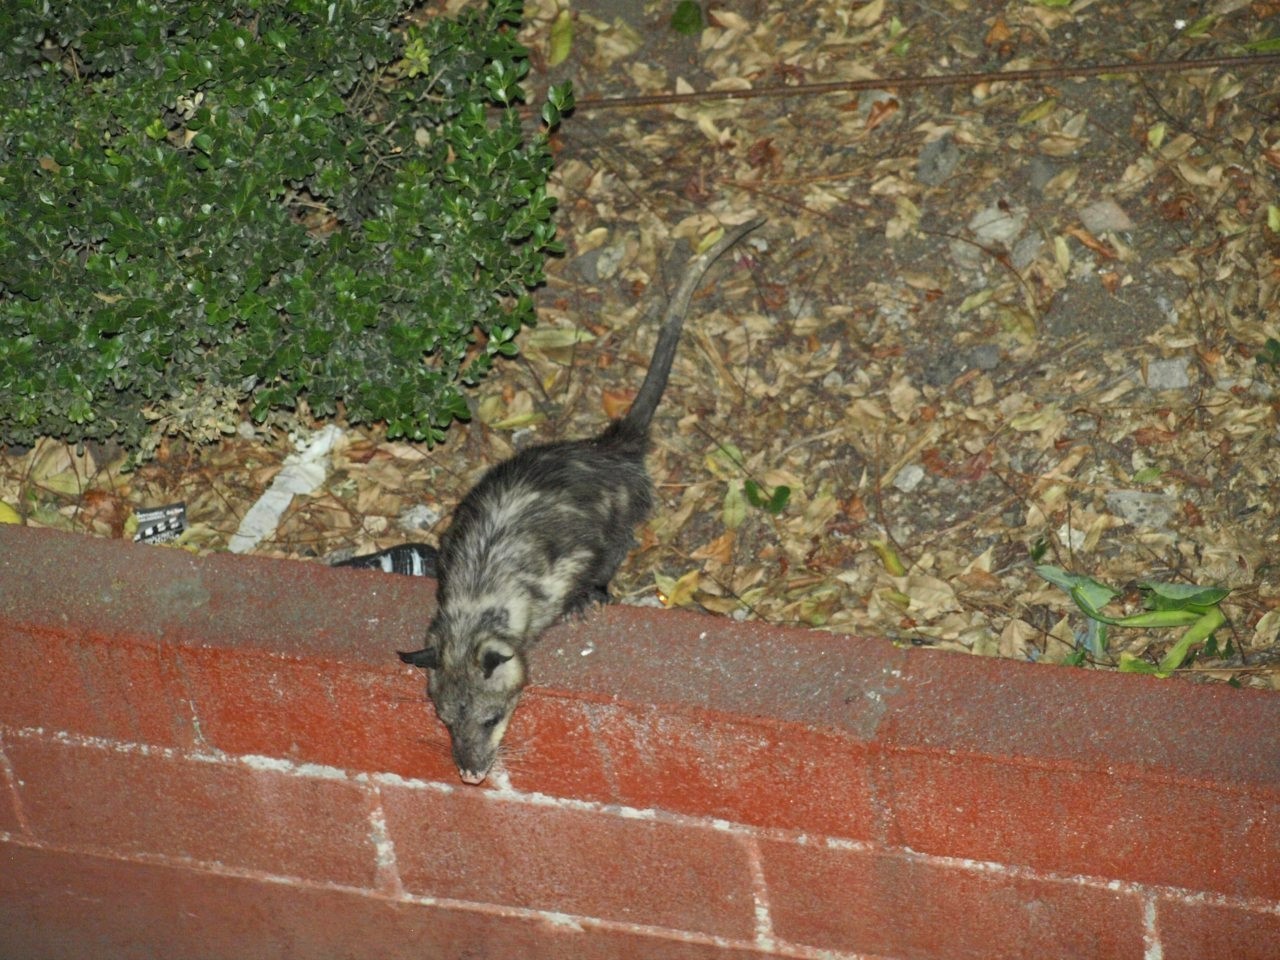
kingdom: Animalia
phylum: Chordata
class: Mammalia
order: Didelphimorphia
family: Didelphidae
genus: Didelphis
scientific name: Didelphis virginiana
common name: Virginia opossum
